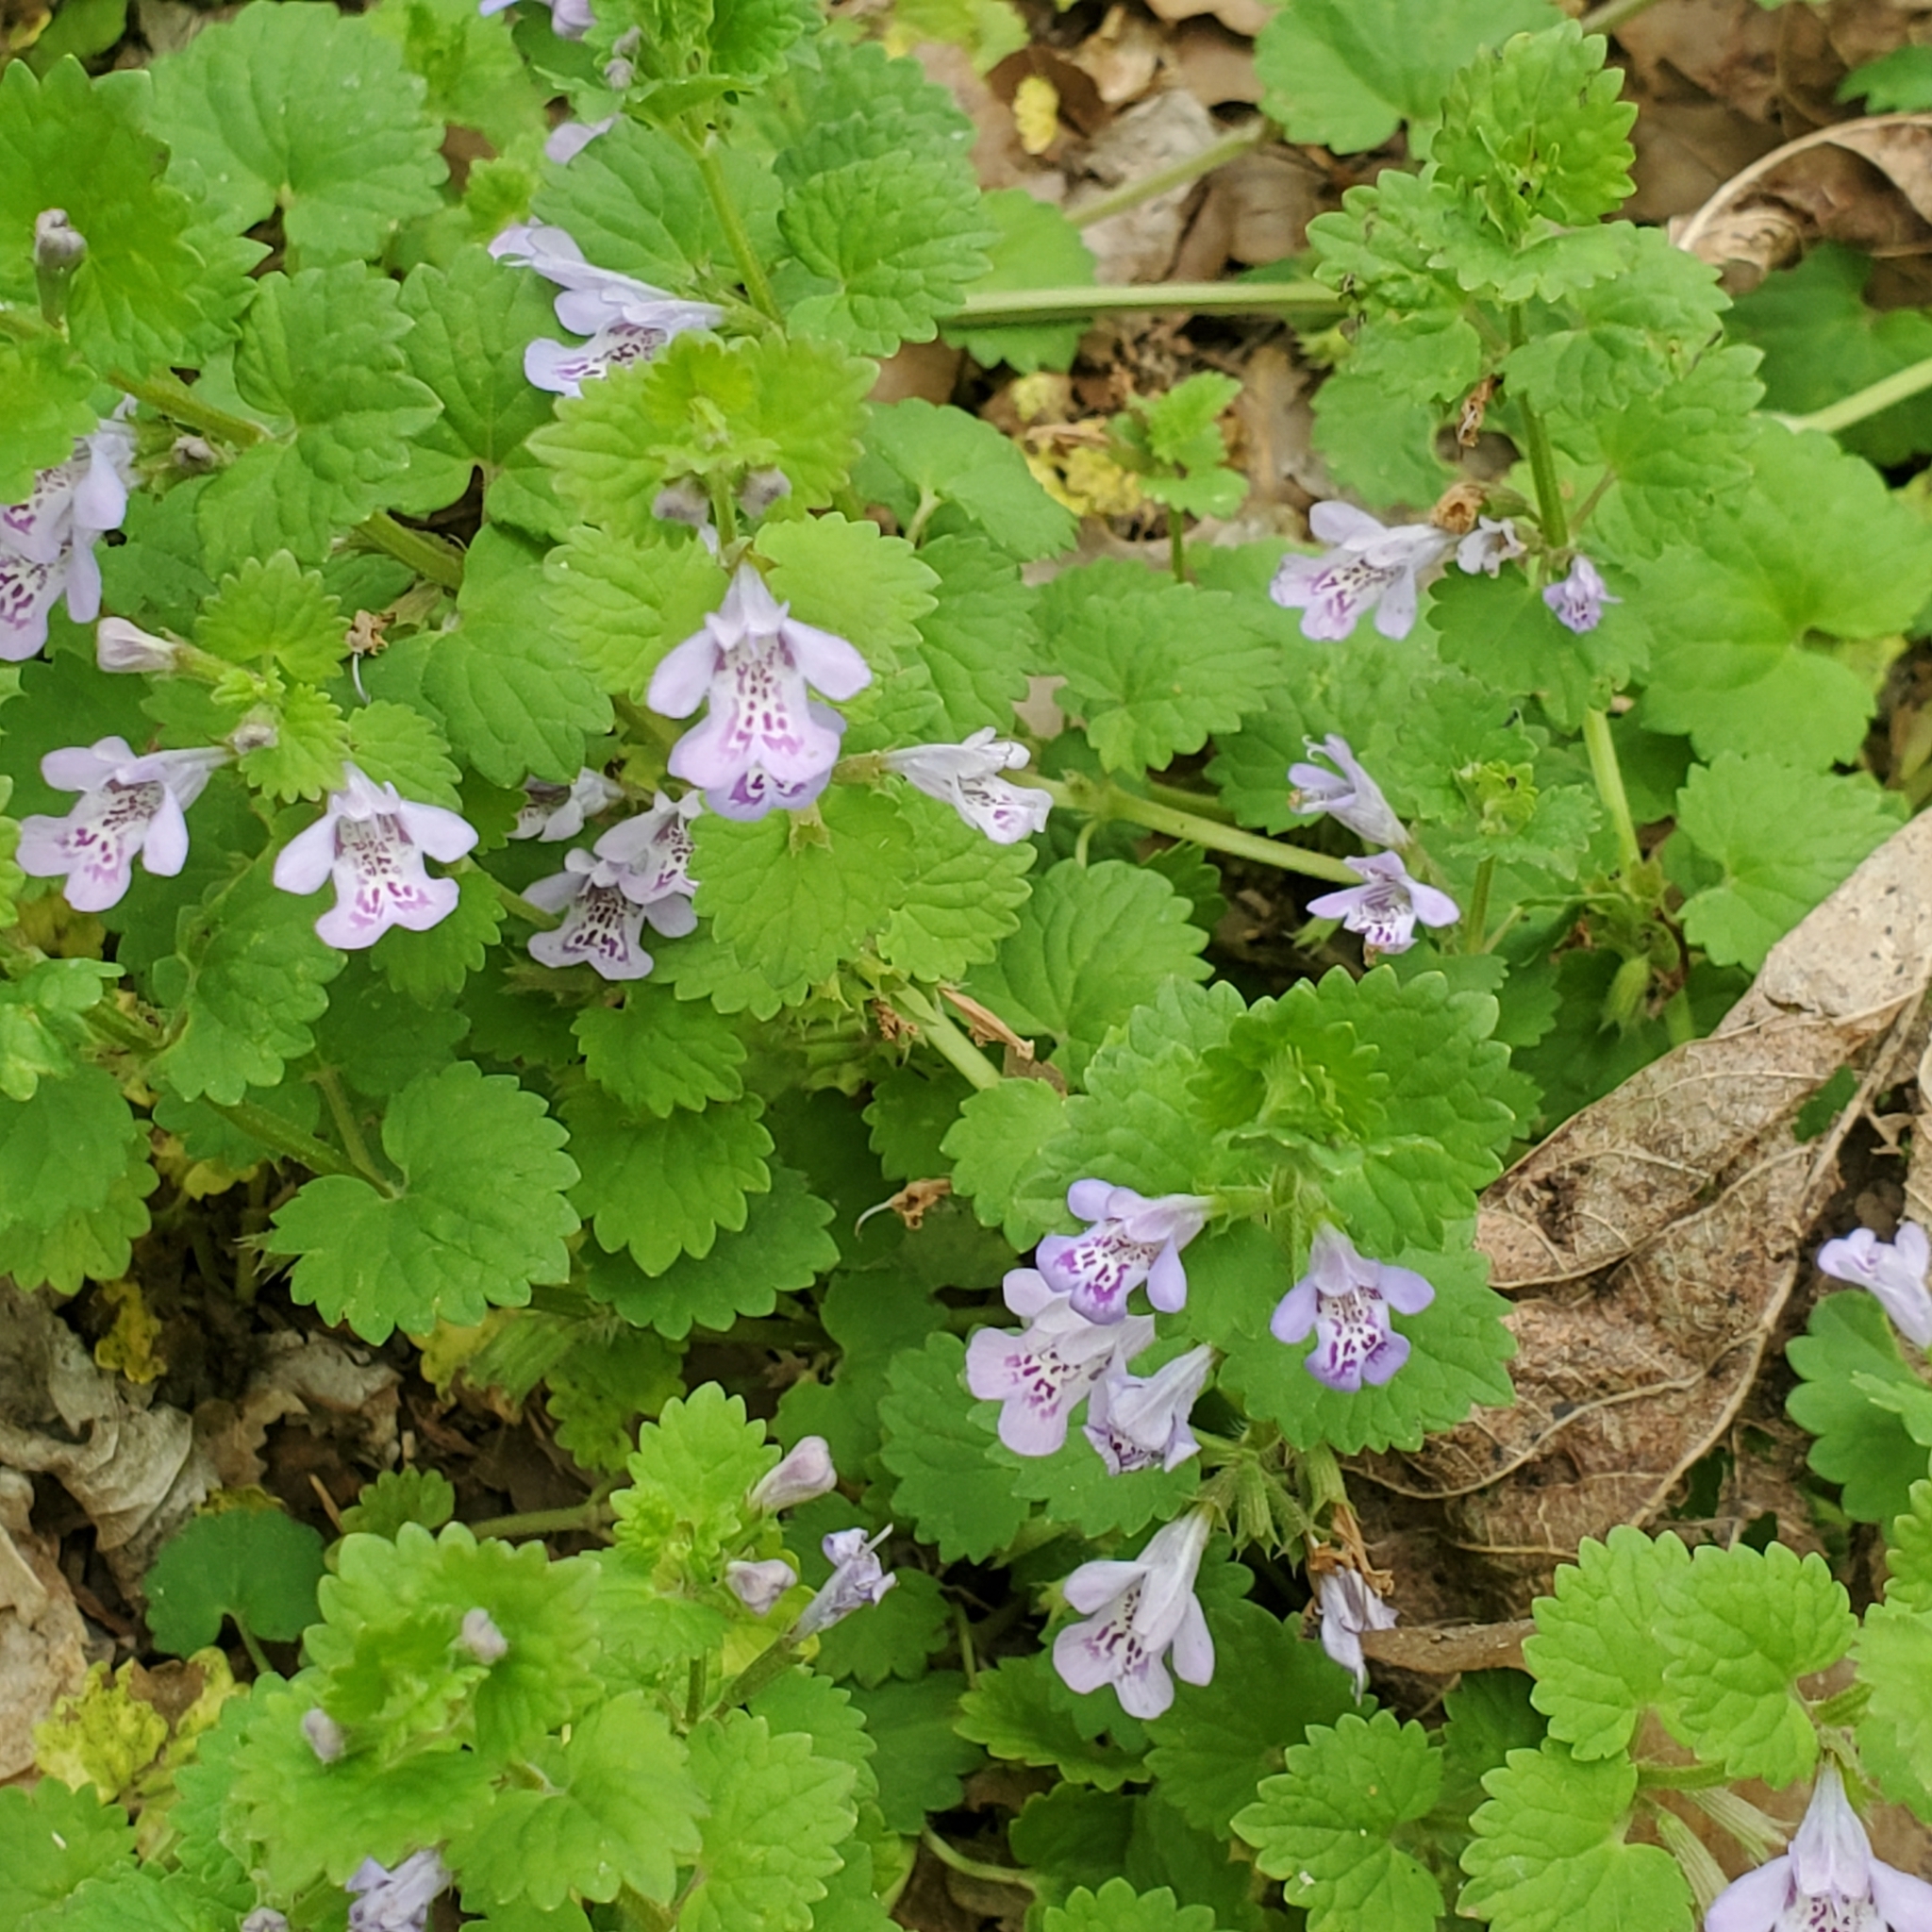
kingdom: Plantae
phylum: Tracheophyta
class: Magnoliopsida
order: Lamiales
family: Lamiaceae
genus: Glechoma
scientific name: Glechoma hederacea
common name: Ground ivy
